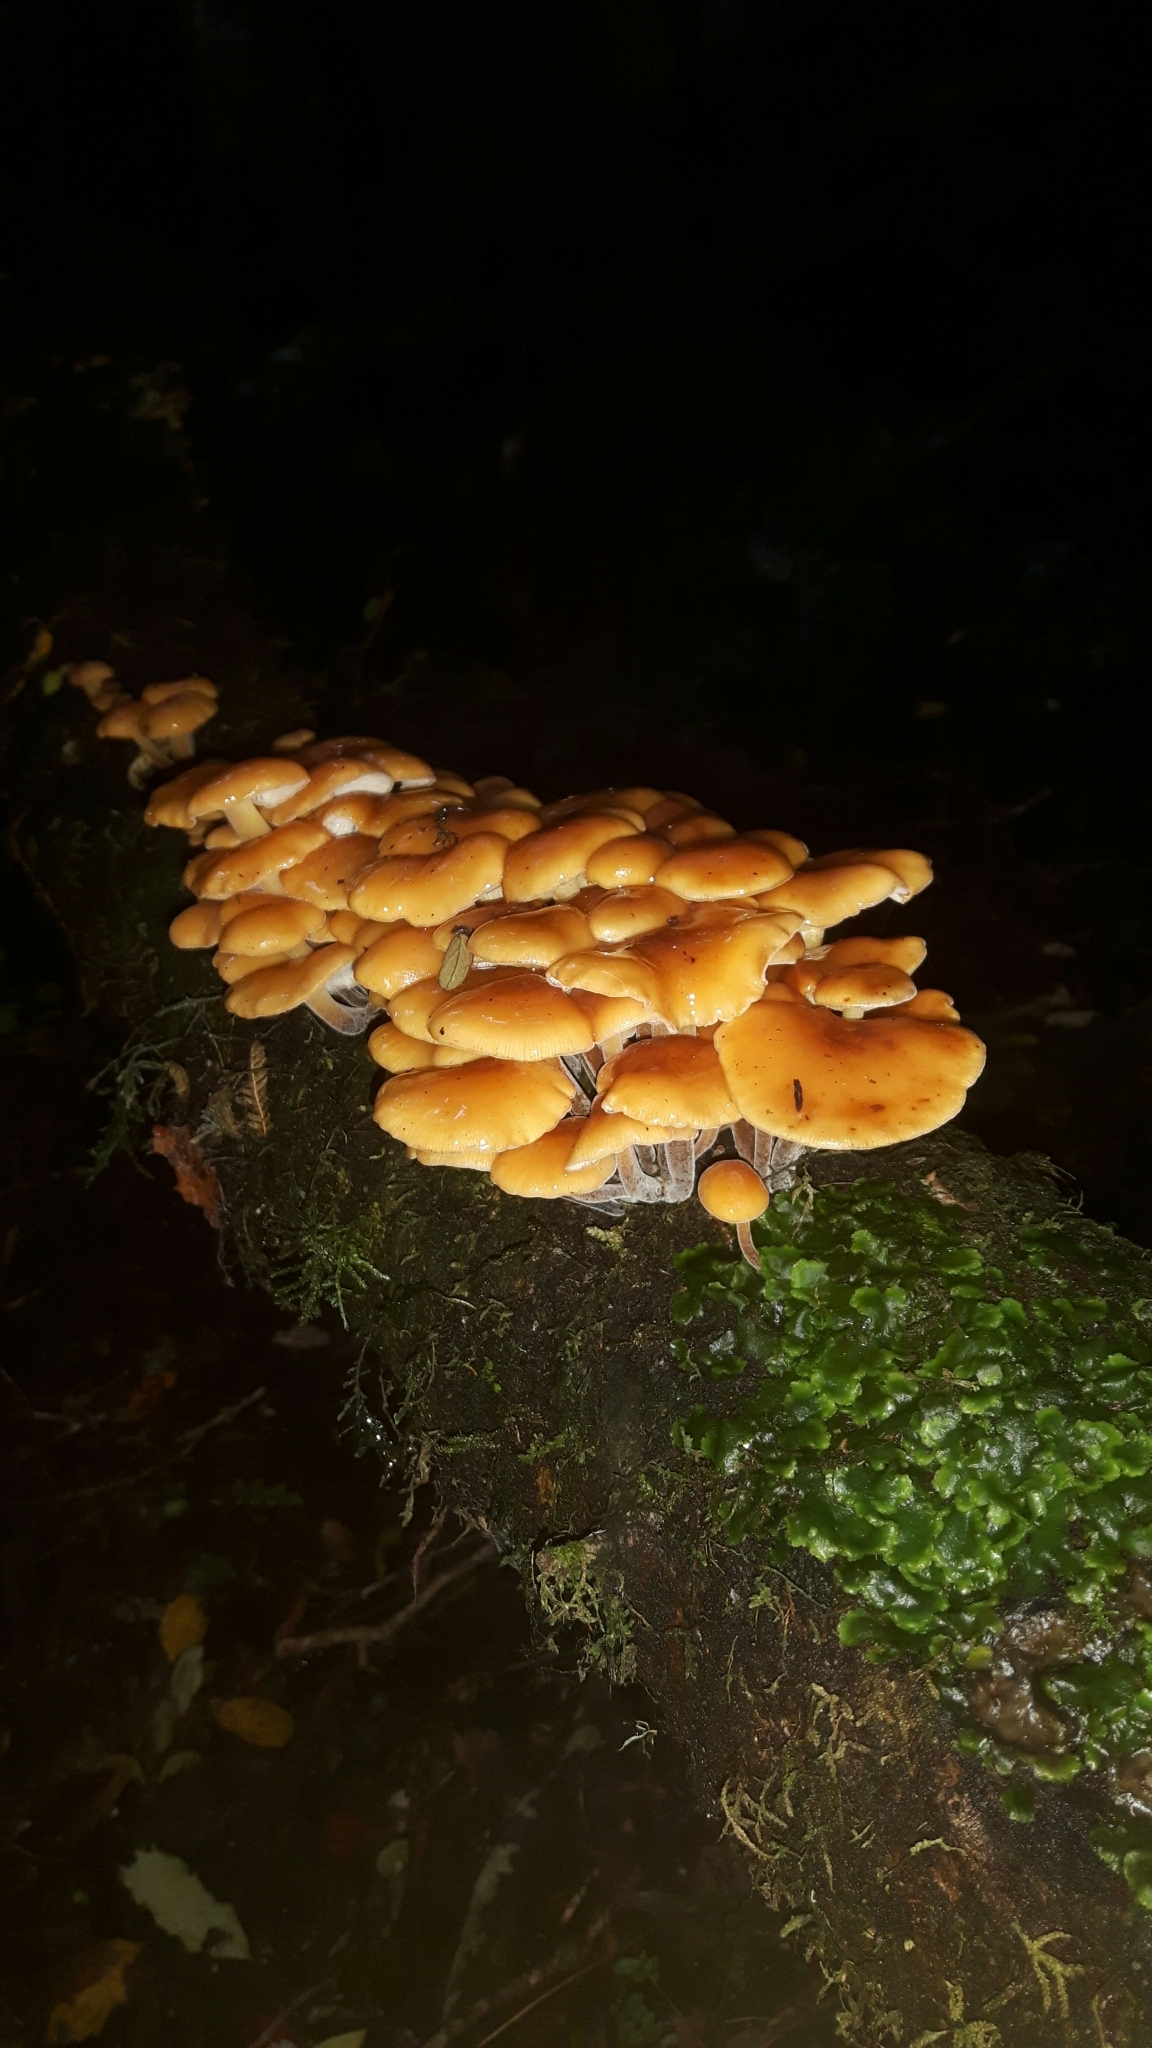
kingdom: Fungi
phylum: Basidiomycota
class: Agaricomycetes
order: Agaricales
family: Physalacriaceae
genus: Flammulina
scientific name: Flammulina velutipes
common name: Velvet shank
